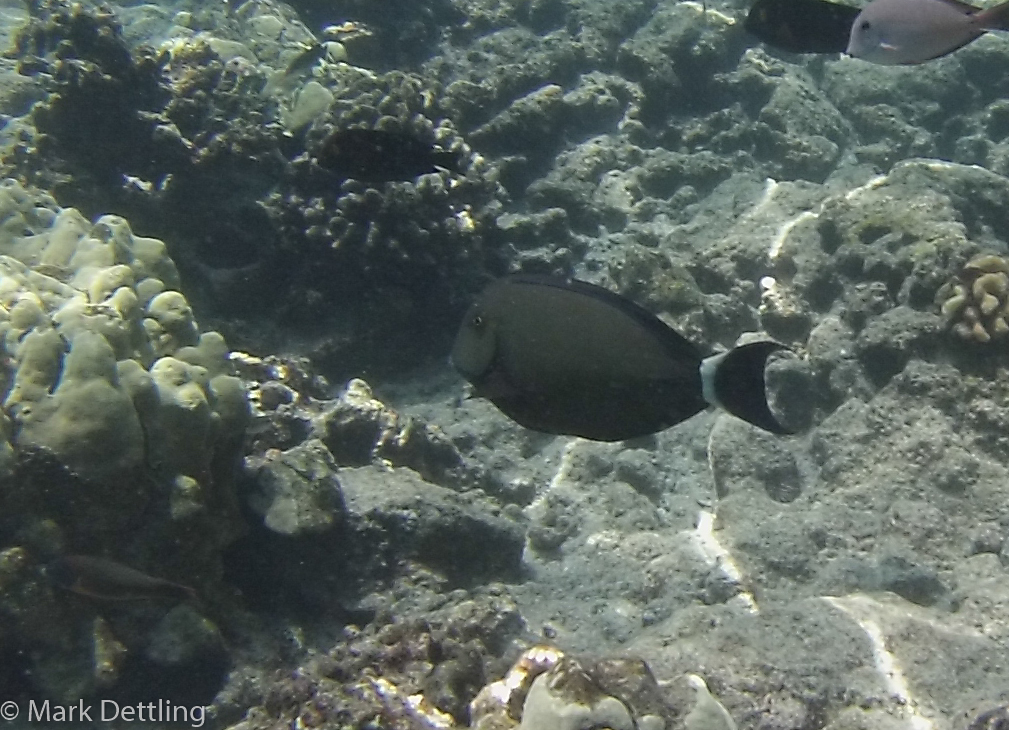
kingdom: Animalia
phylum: Chordata
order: Perciformes
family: Acanthuridae
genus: Acanthurus
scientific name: Acanthurus blochii
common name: Blue-banded pualu
